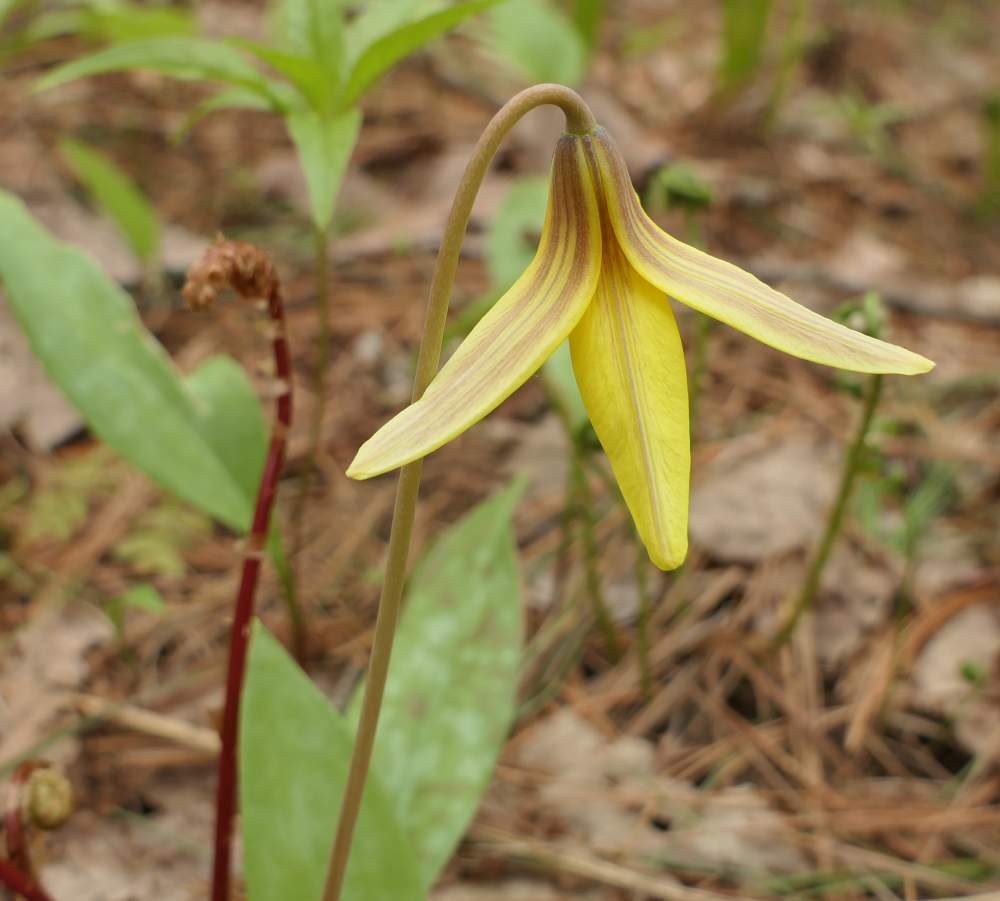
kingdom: Plantae
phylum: Tracheophyta
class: Liliopsida
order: Liliales
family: Liliaceae
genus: Erythronium
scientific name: Erythronium americanum
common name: Yellow adder's-tongue
